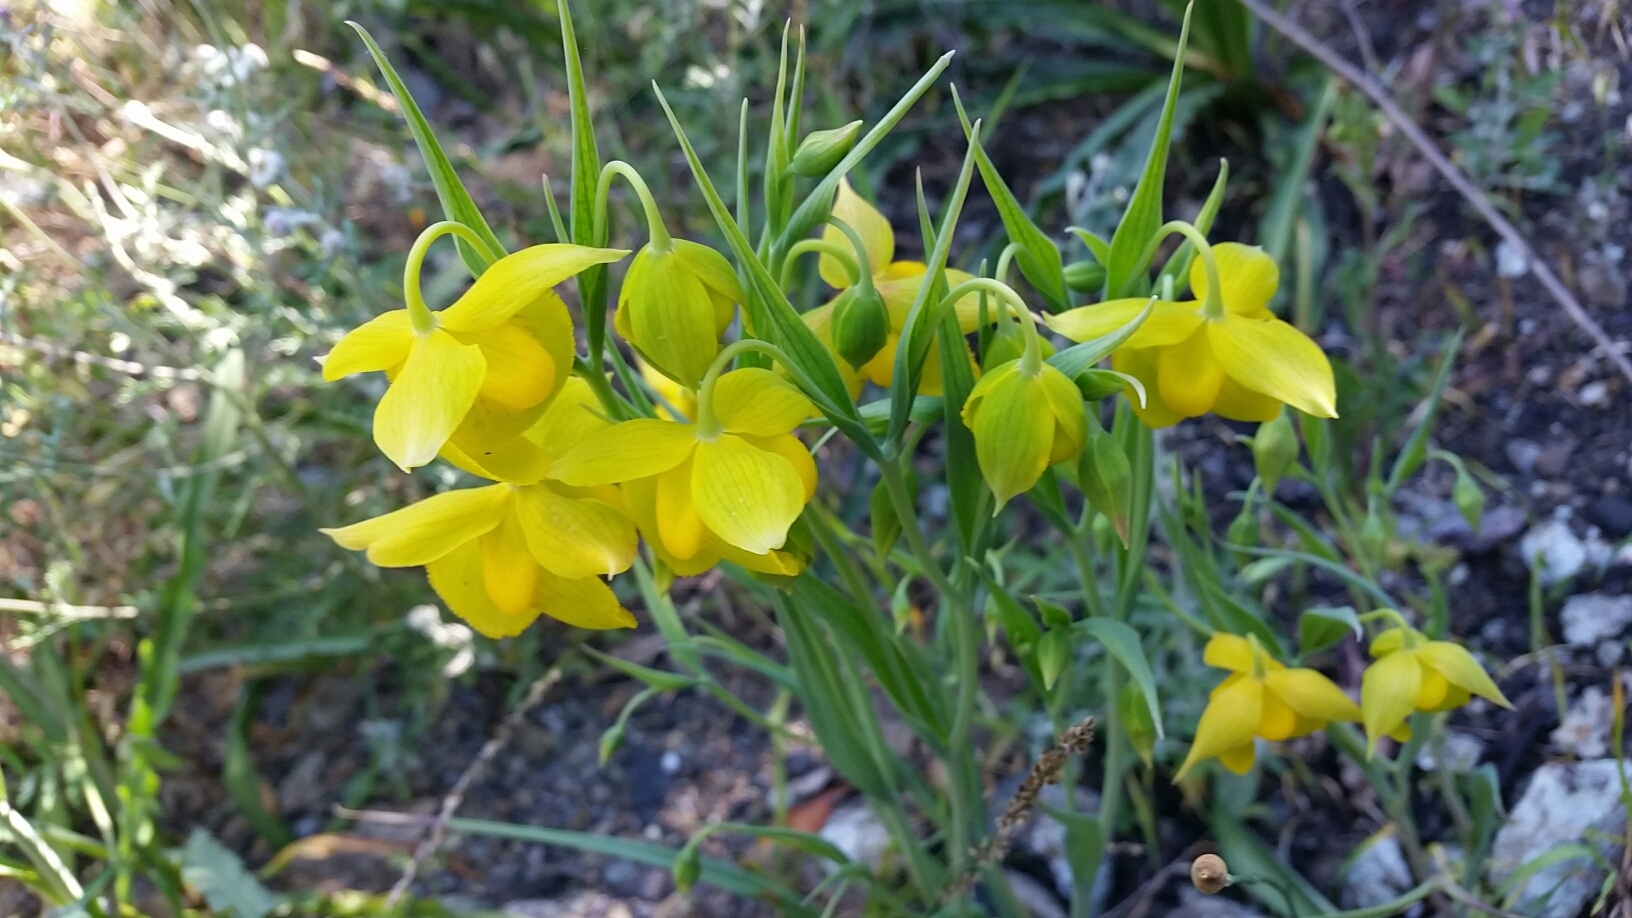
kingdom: Plantae
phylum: Tracheophyta
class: Liliopsida
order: Liliales
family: Liliaceae
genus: Calochortus
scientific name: Calochortus amabilis
